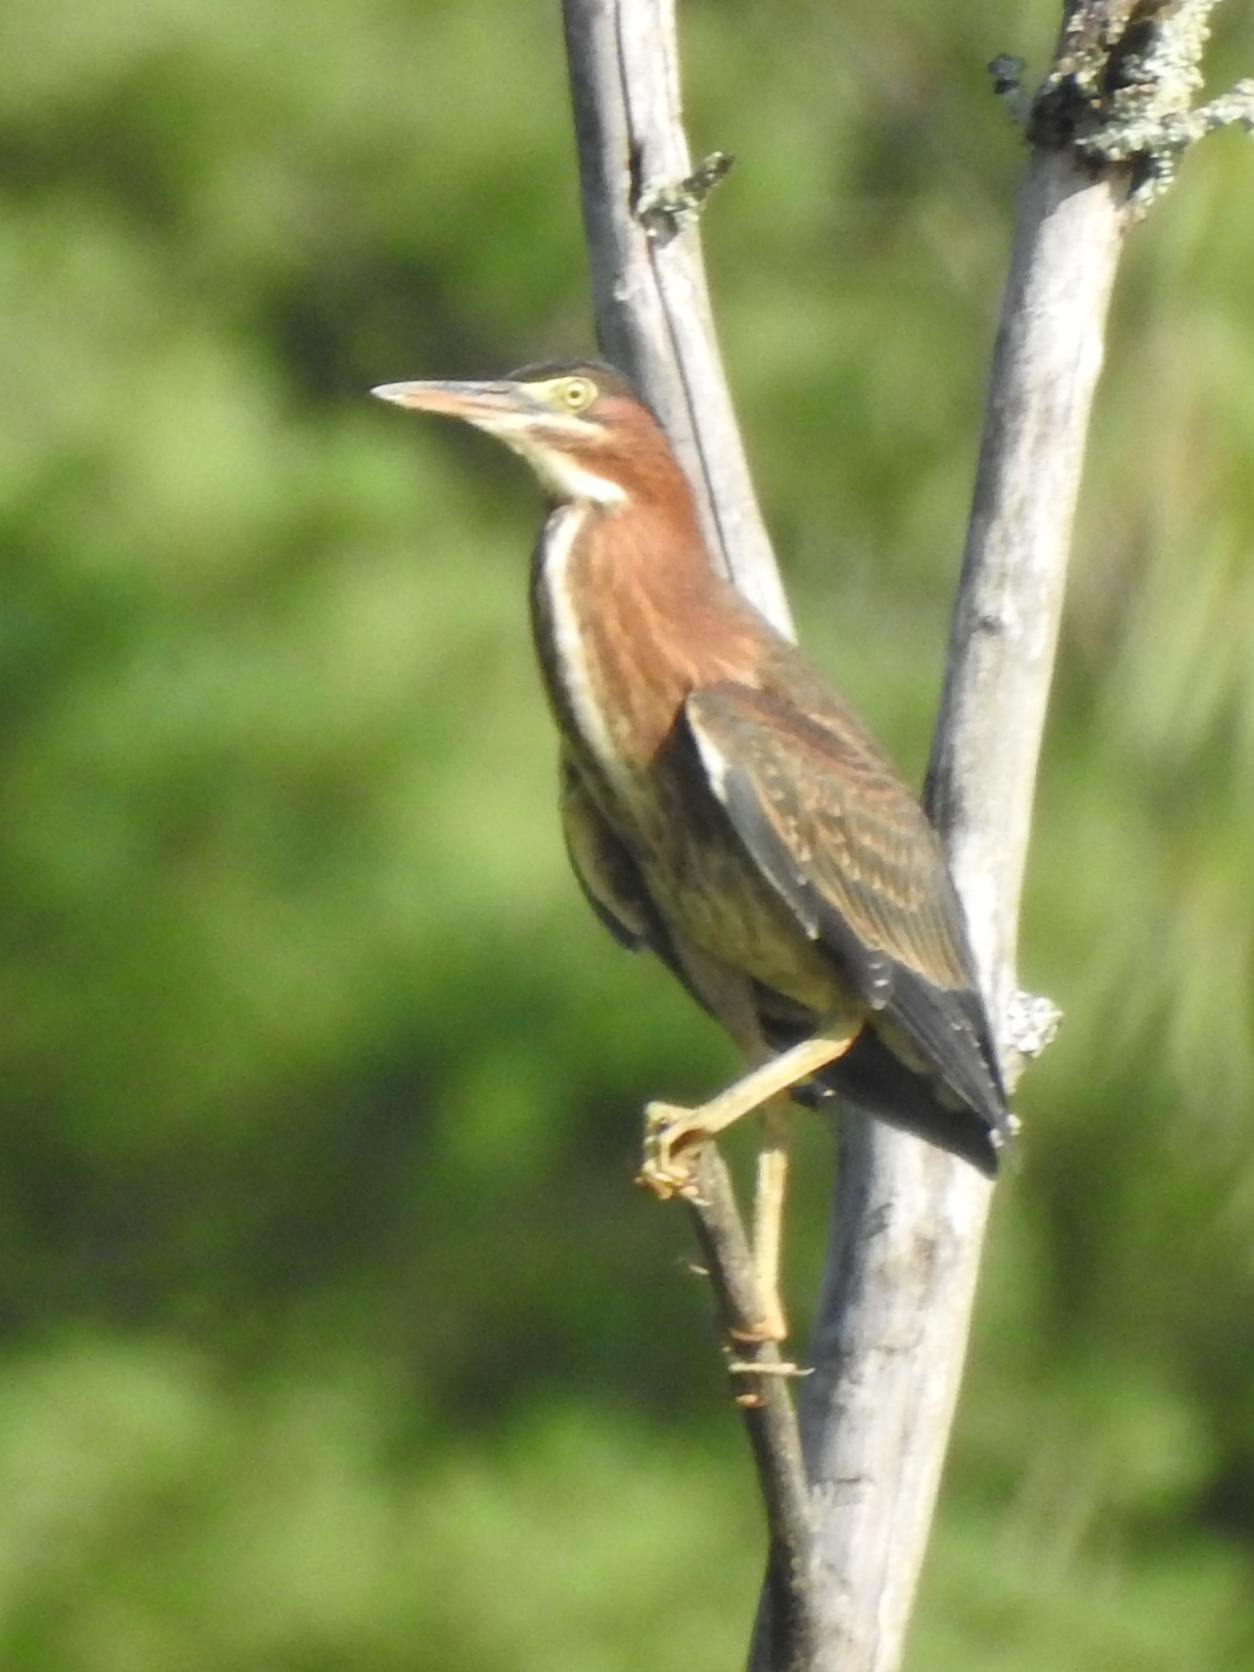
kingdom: Animalia
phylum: Chordata
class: Aves
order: Pelecaniformes
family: Ardeidae
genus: Butorides
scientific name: Butorides virescens
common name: Green heron
